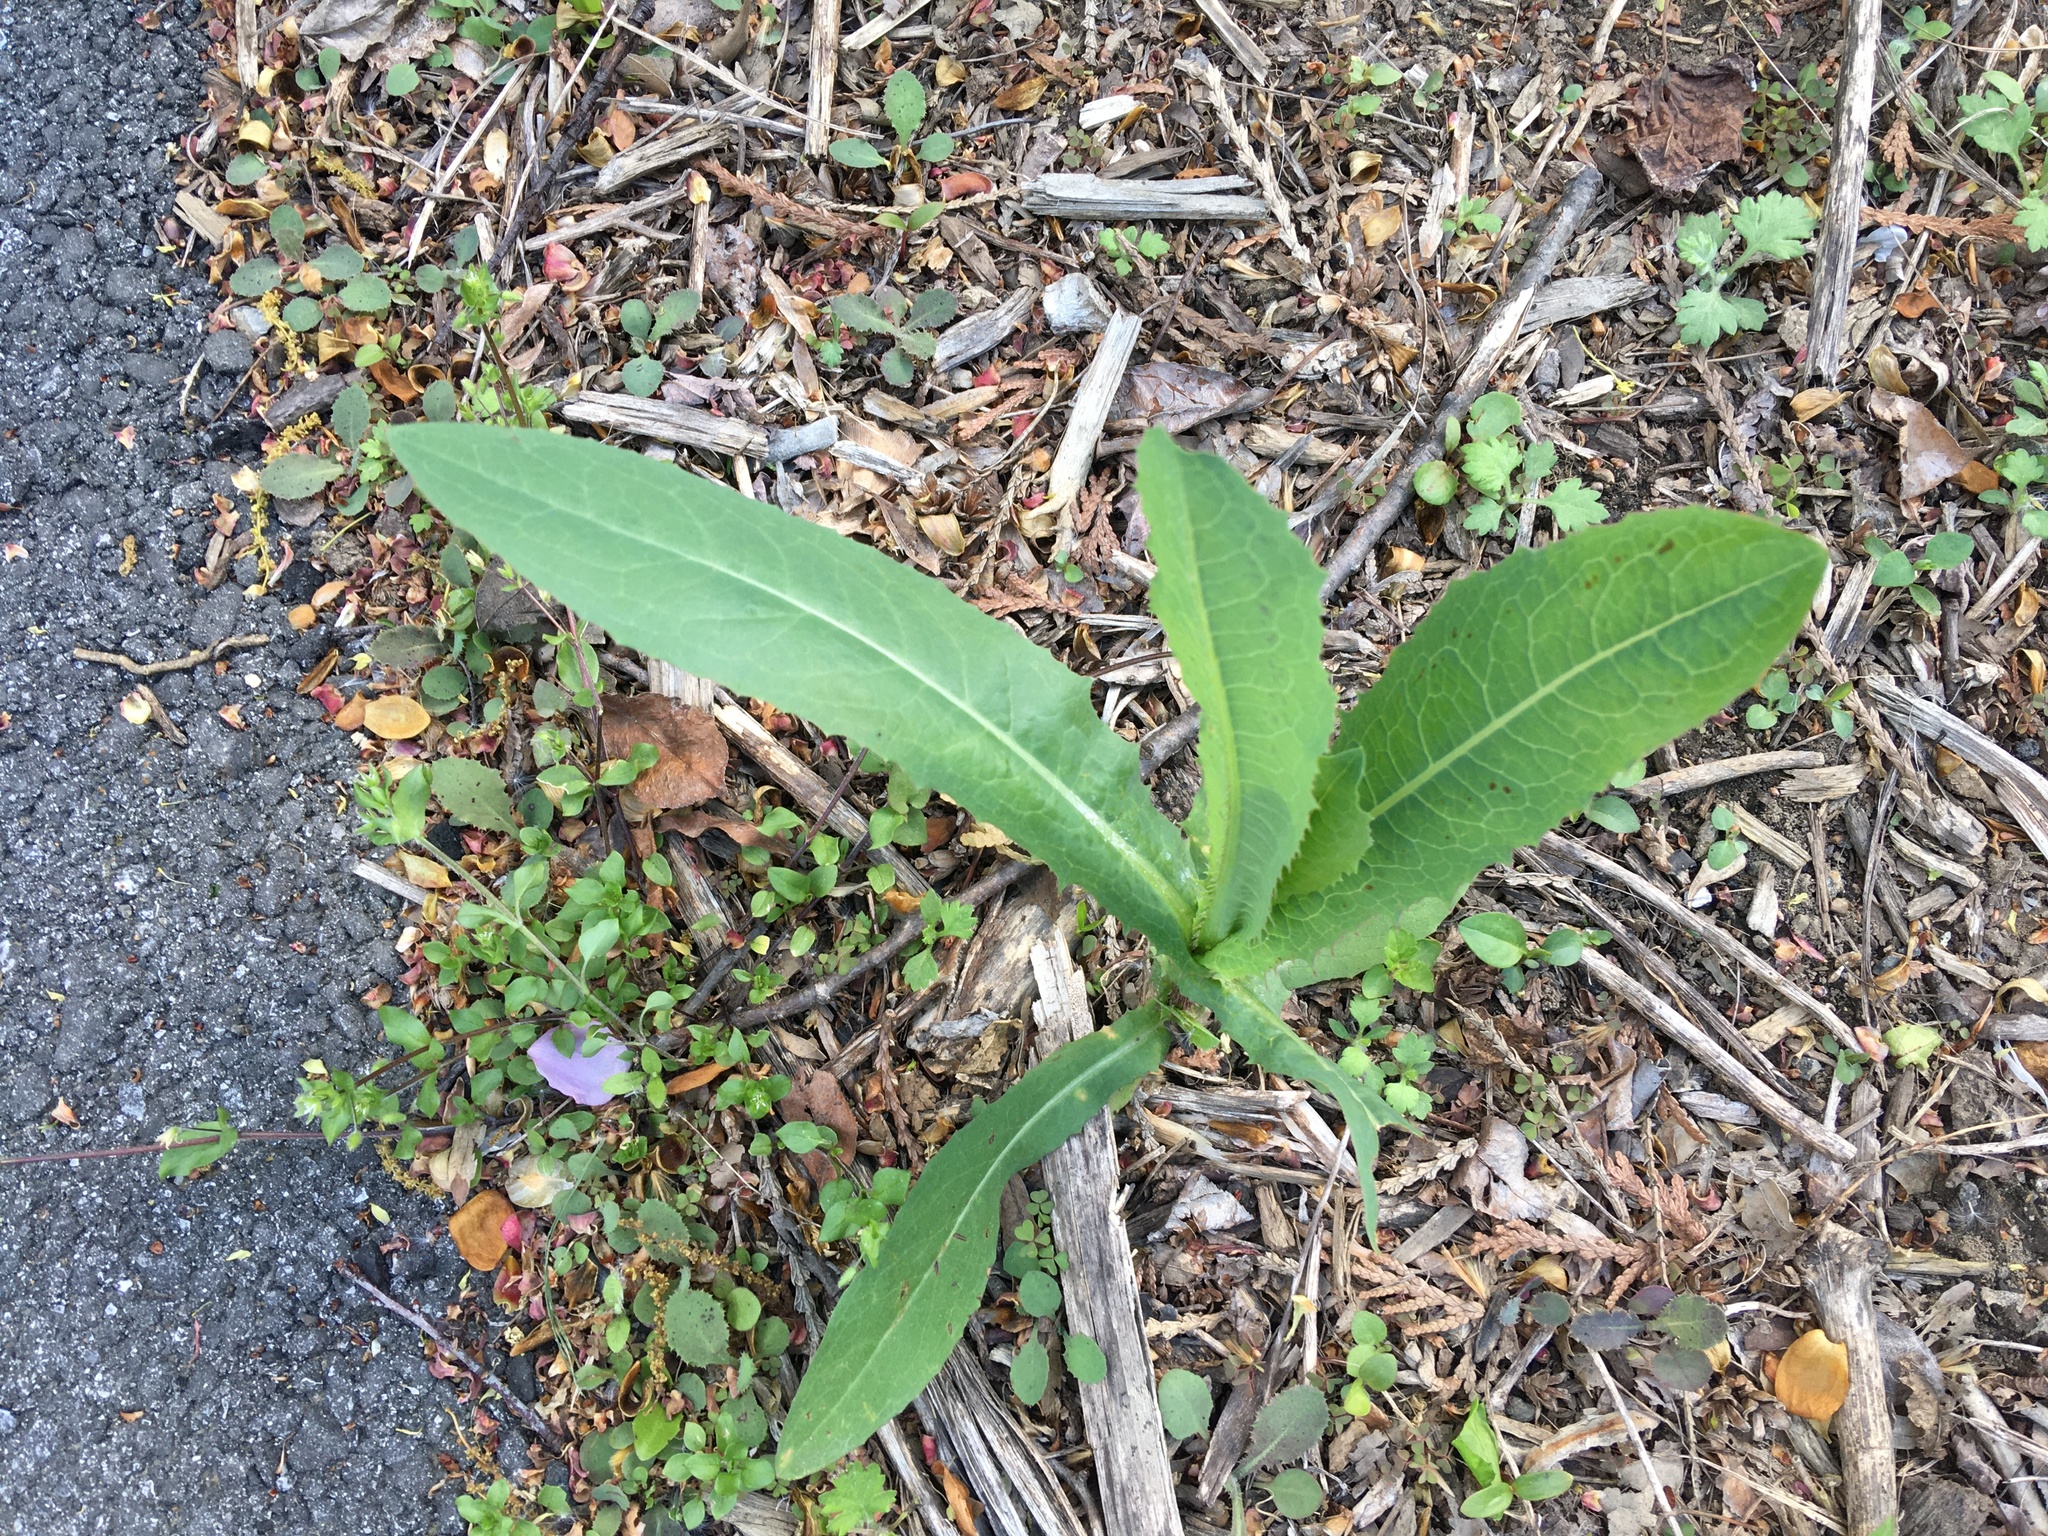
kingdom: Plantae
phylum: Tracheophyta
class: Magnoliopsida
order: Asterales
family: Asteraceae
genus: Senecio
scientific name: Senecio vulgaris
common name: Old-man-in-the-spring
